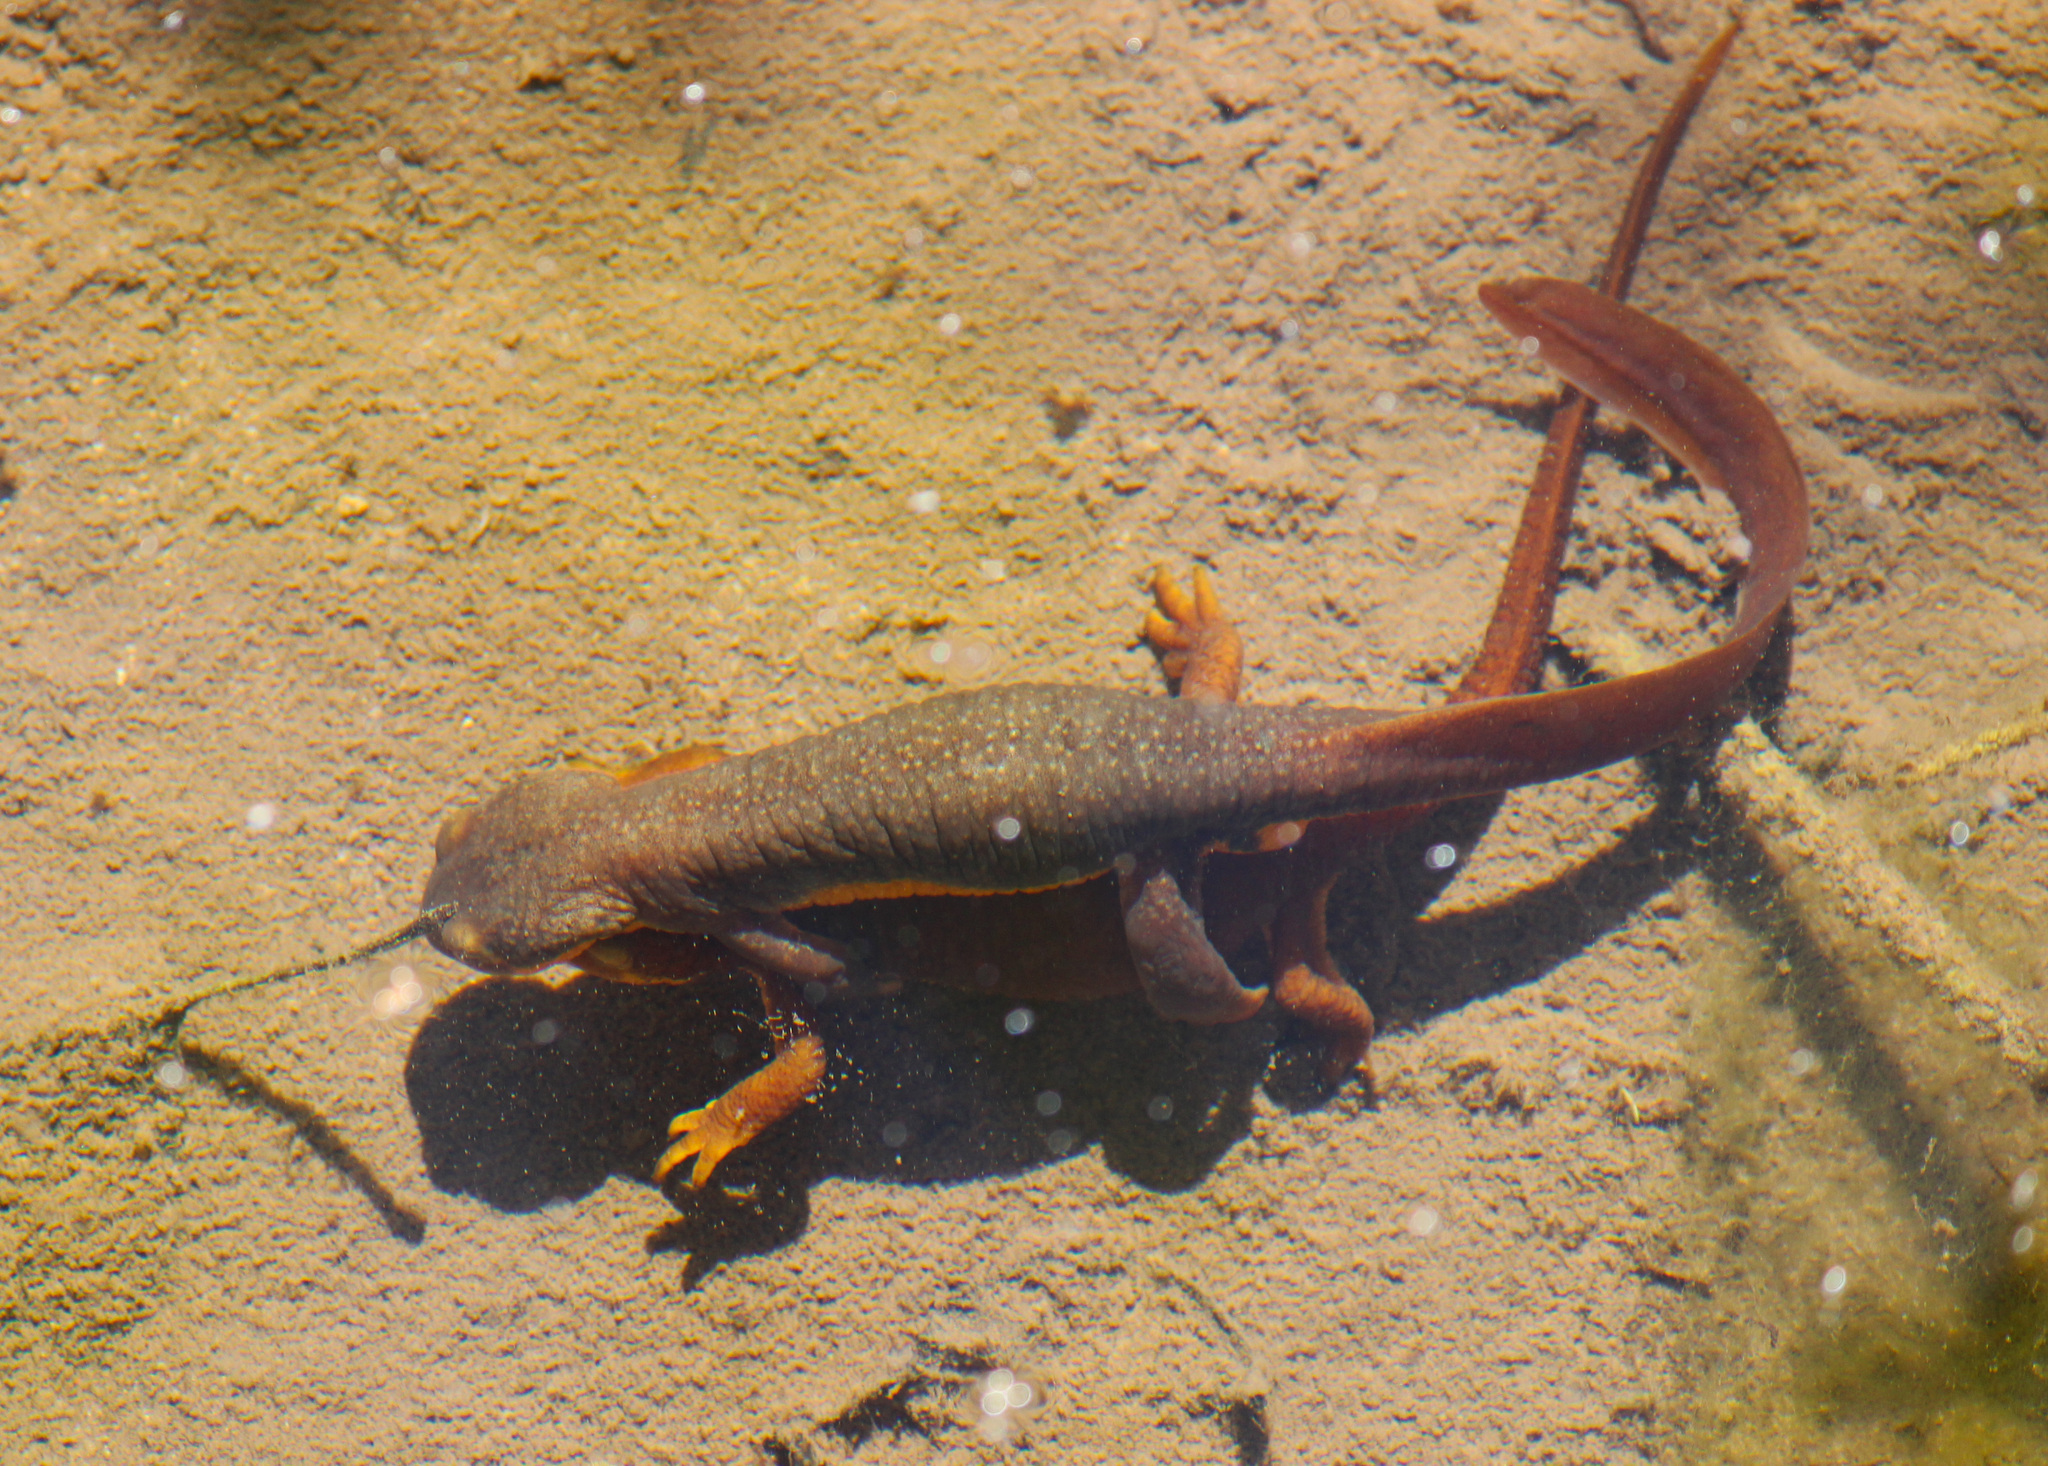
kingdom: Animalia
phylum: Chordata
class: Amphibia
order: Caudata
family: Salamandridae
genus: Taricha
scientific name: Taricha torosa
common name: California newt
